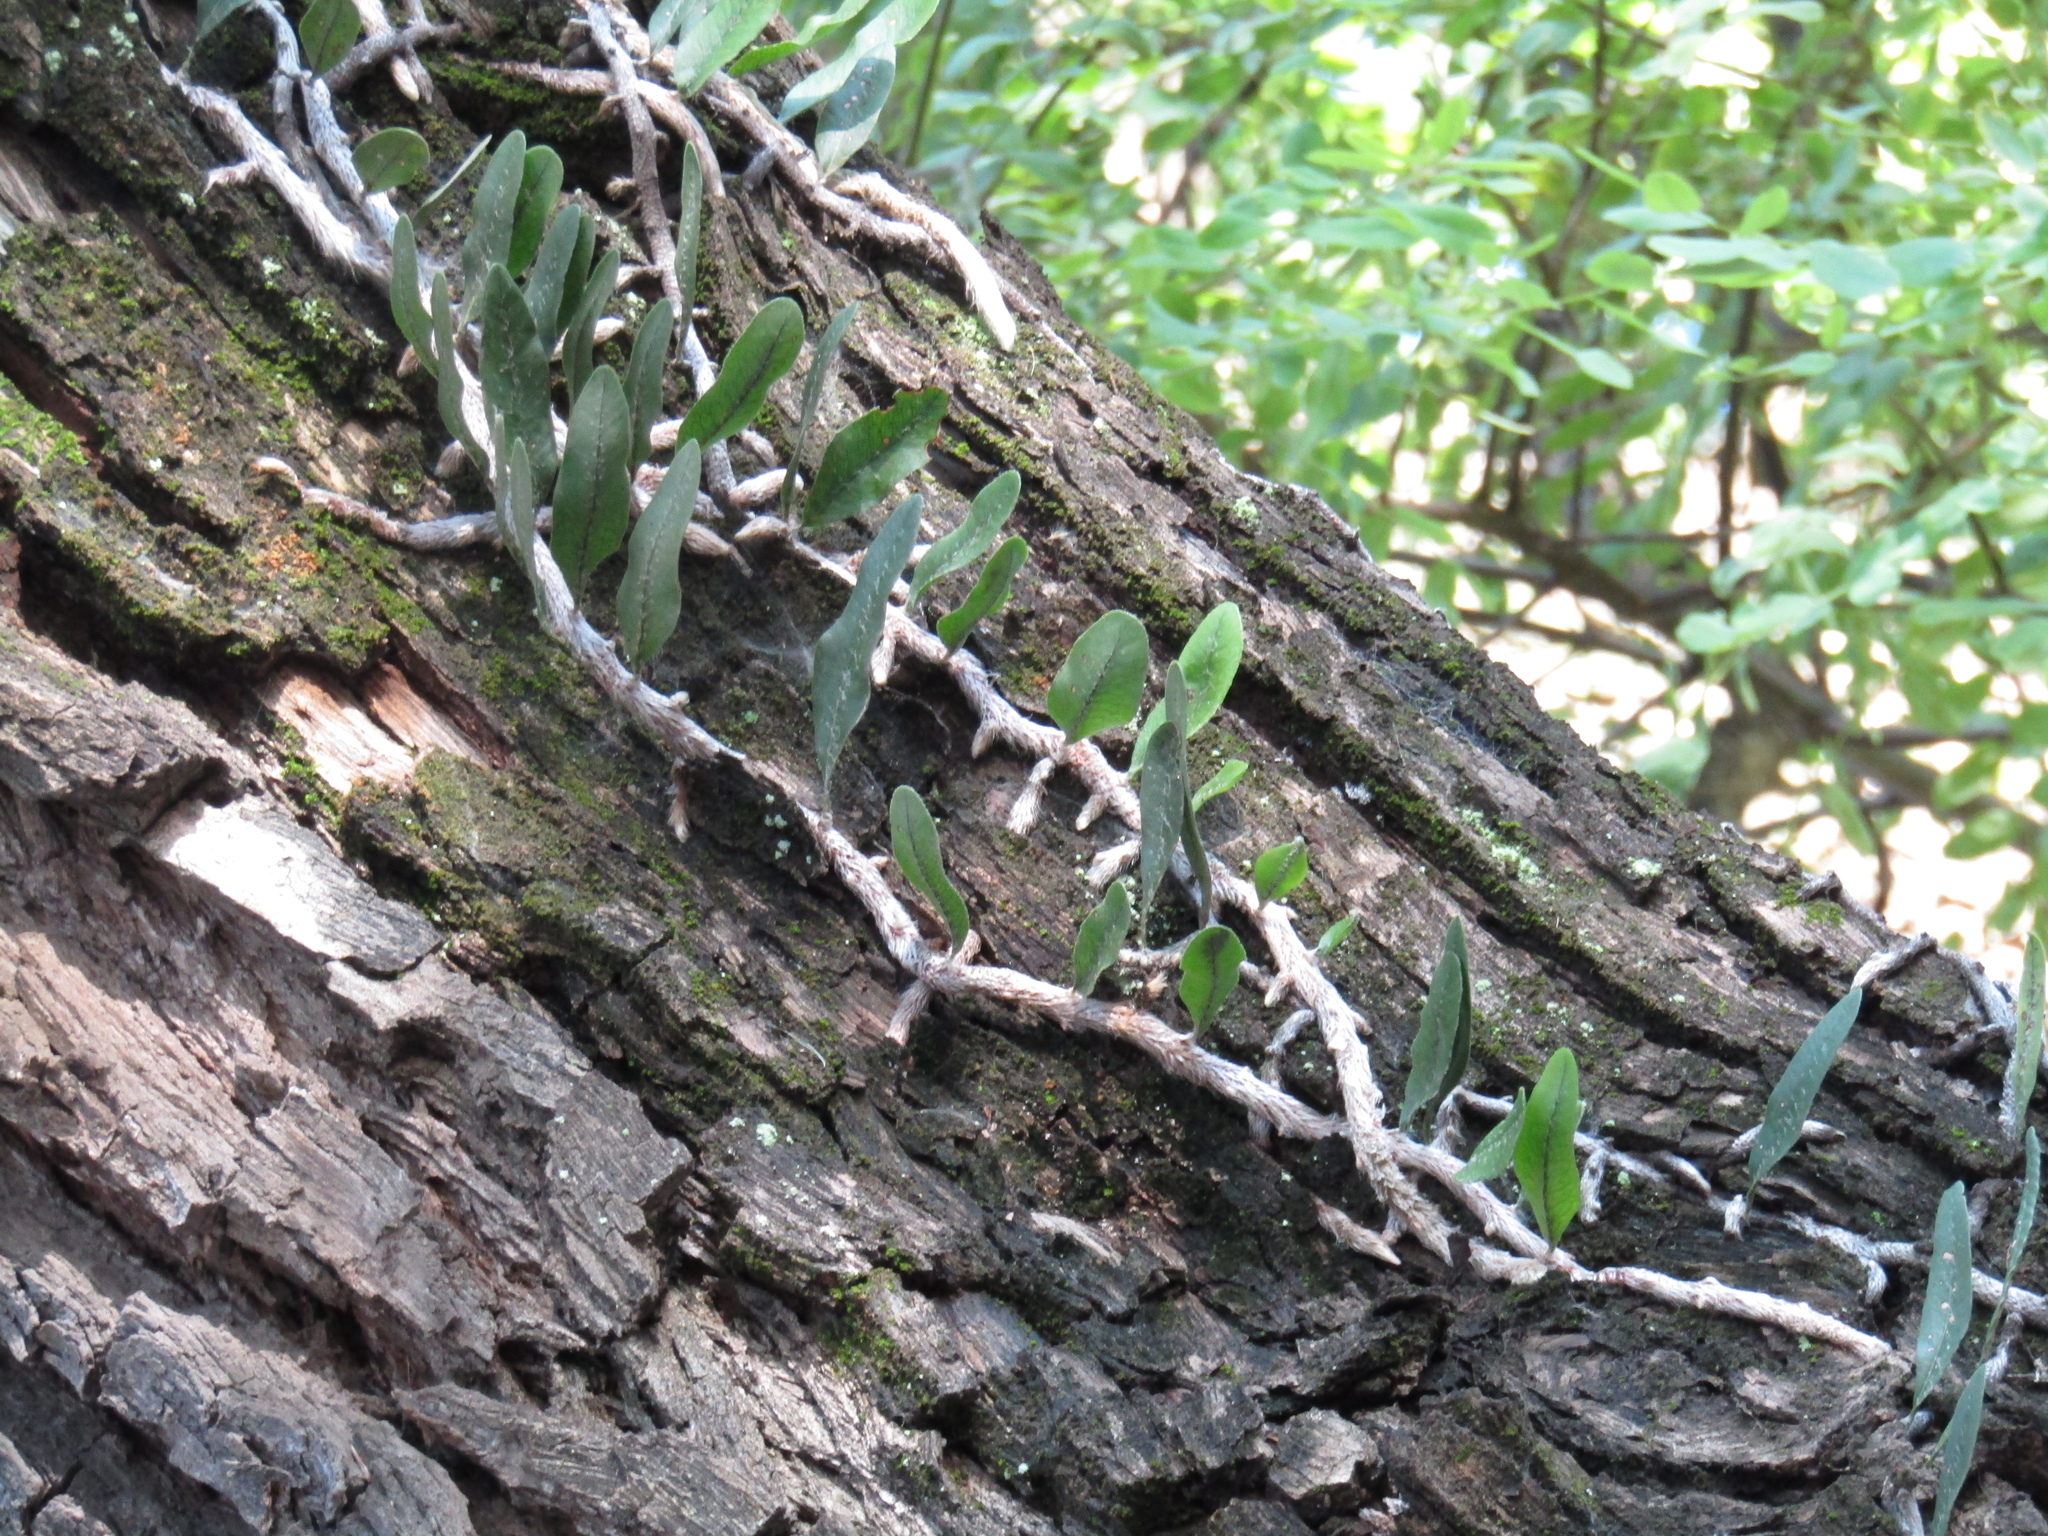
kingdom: Plantae
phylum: Tracheophyta
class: Polypodiopsida
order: Polypodiales
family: Polypodiaceae
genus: Microgramma
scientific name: Microgramma mortoniana
